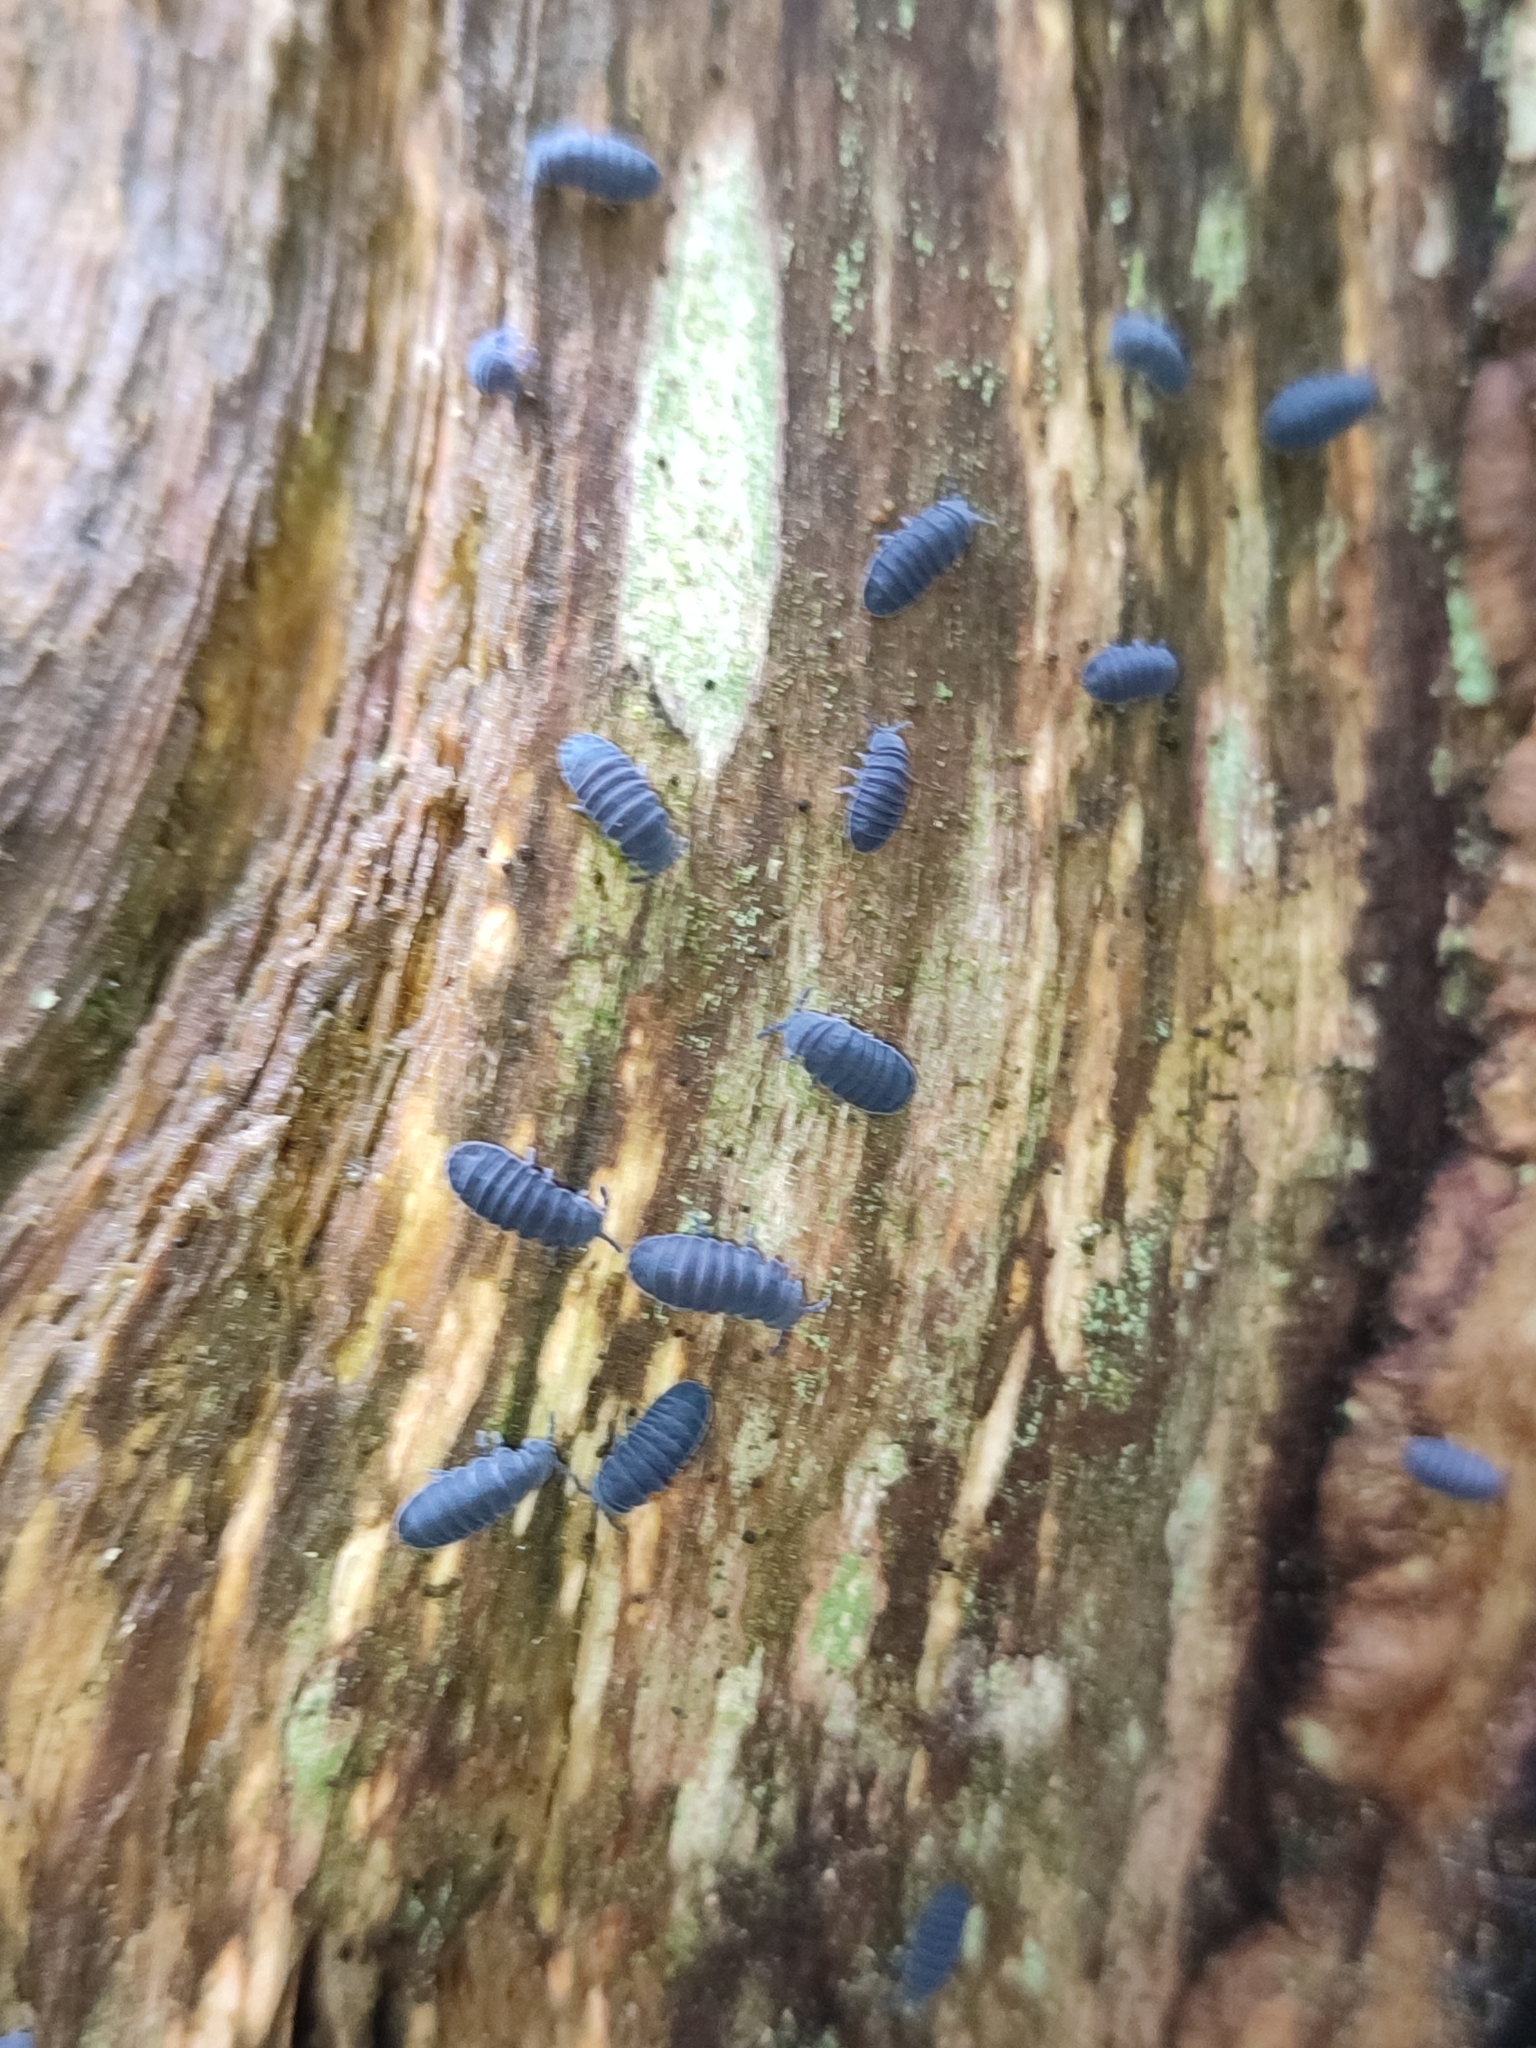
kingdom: Animalia
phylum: Arthropoda
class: Collembola
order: Poduromorpha
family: Onychiuridae
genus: Tetrodontophora
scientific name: Tetrodontophora bielanensis
